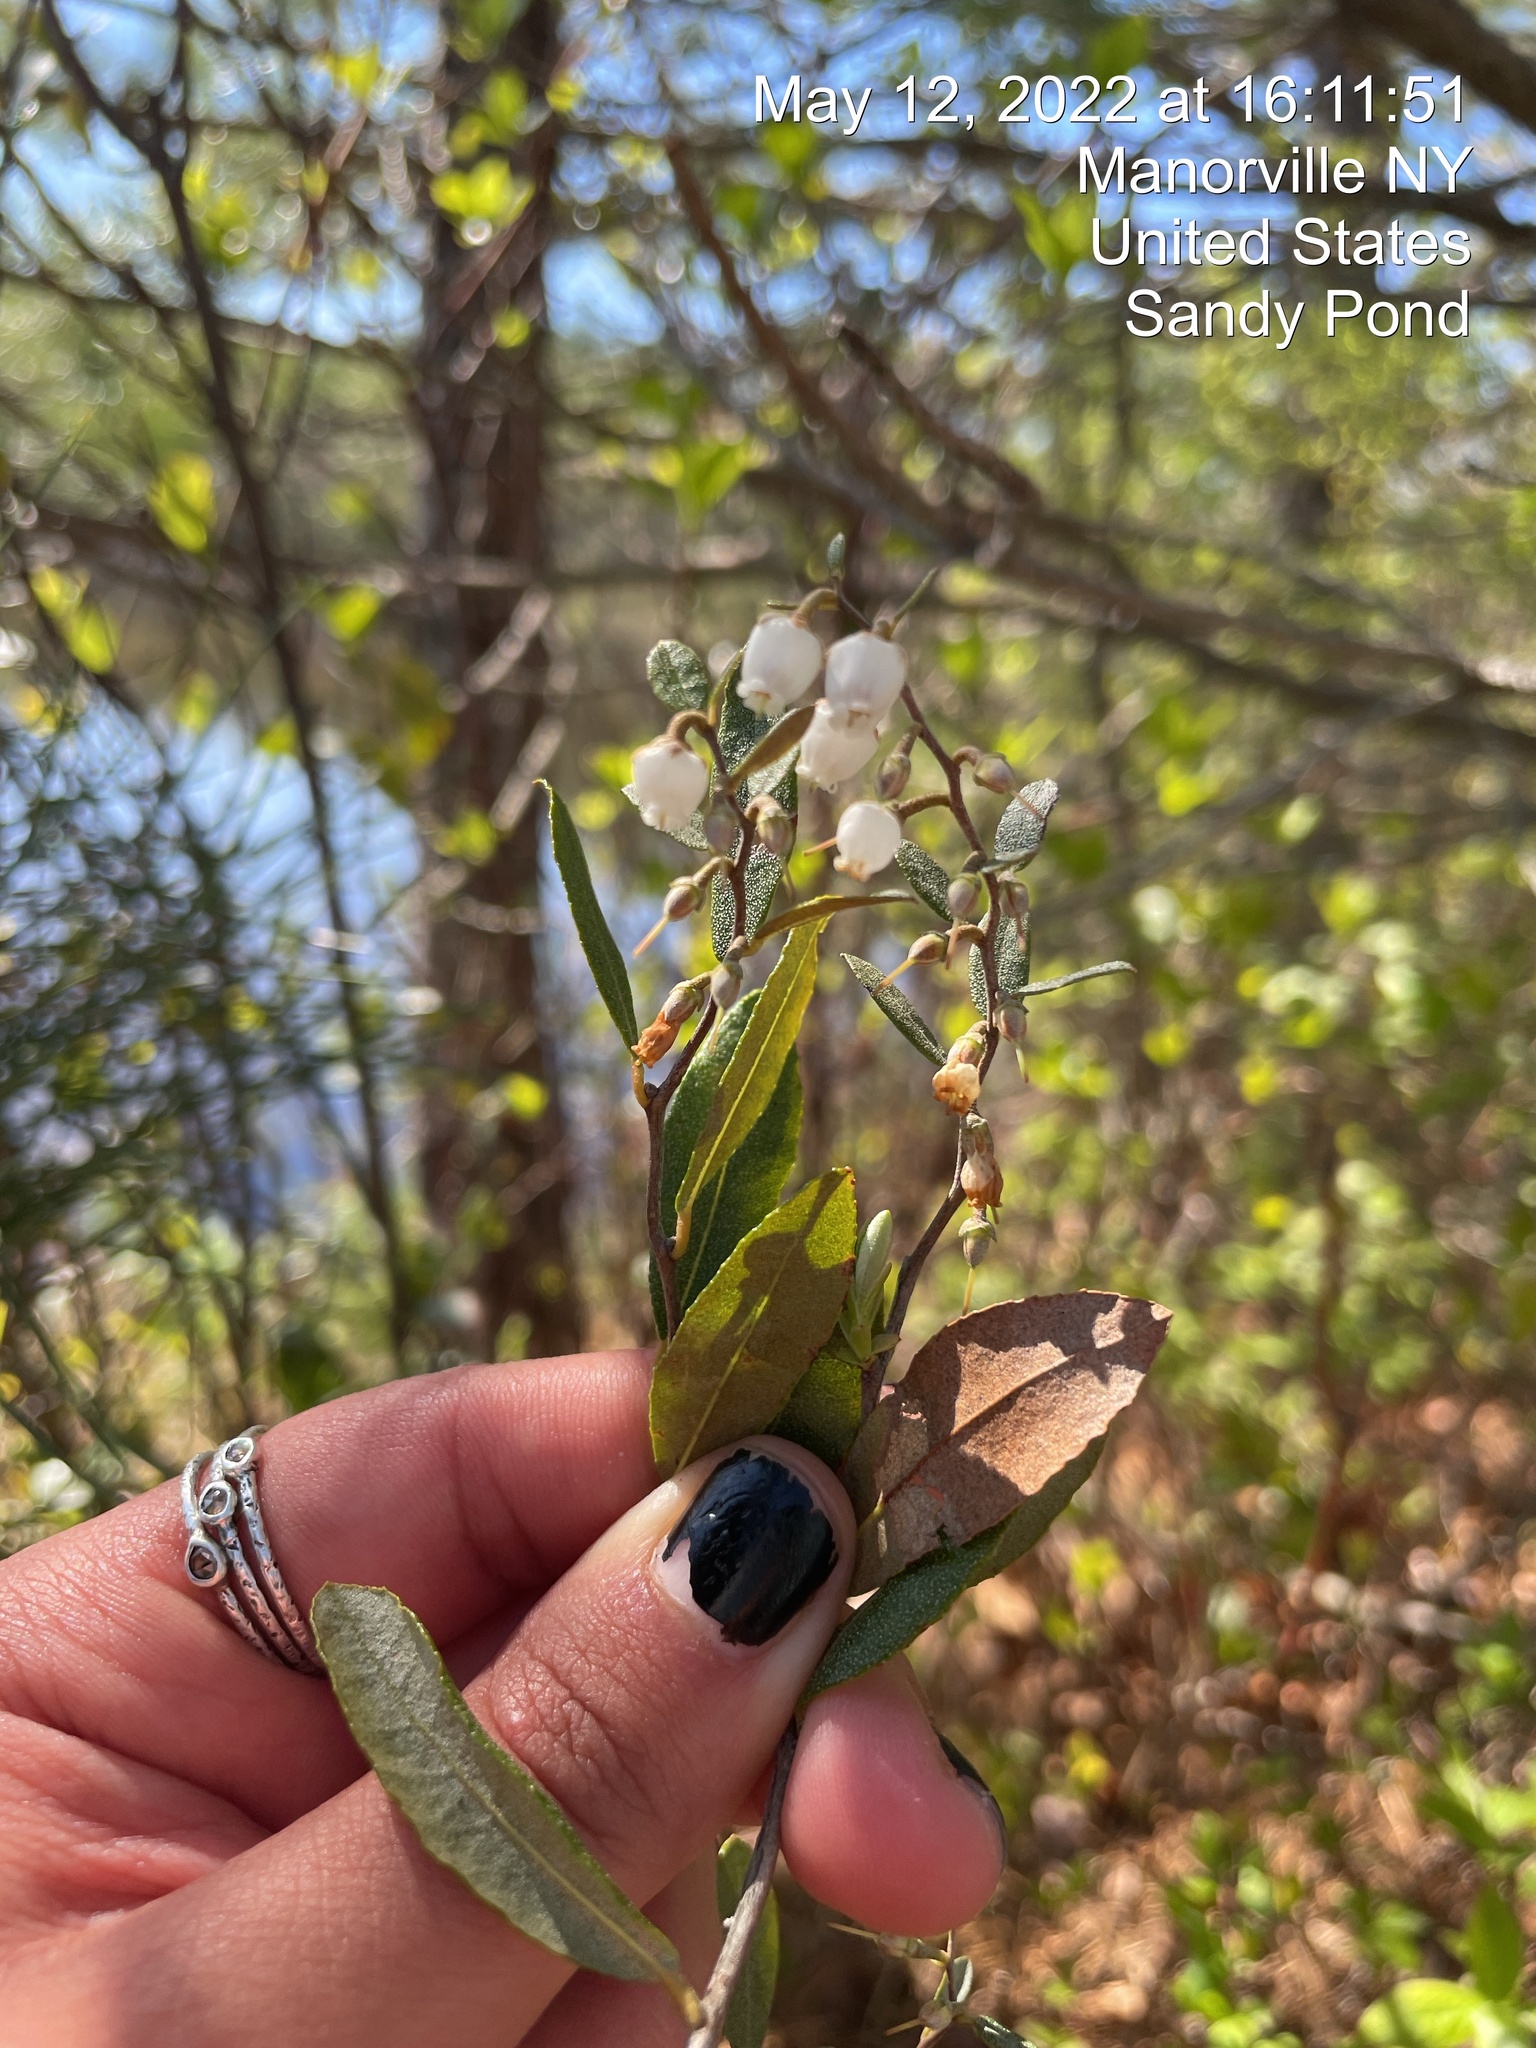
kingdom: Plantae
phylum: Tracheophyta
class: Magnoliopsida
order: Ericales
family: Ericaceae
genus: Chamaedaphne
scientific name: Chamaedaphne calyculata
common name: Leatherleaf
